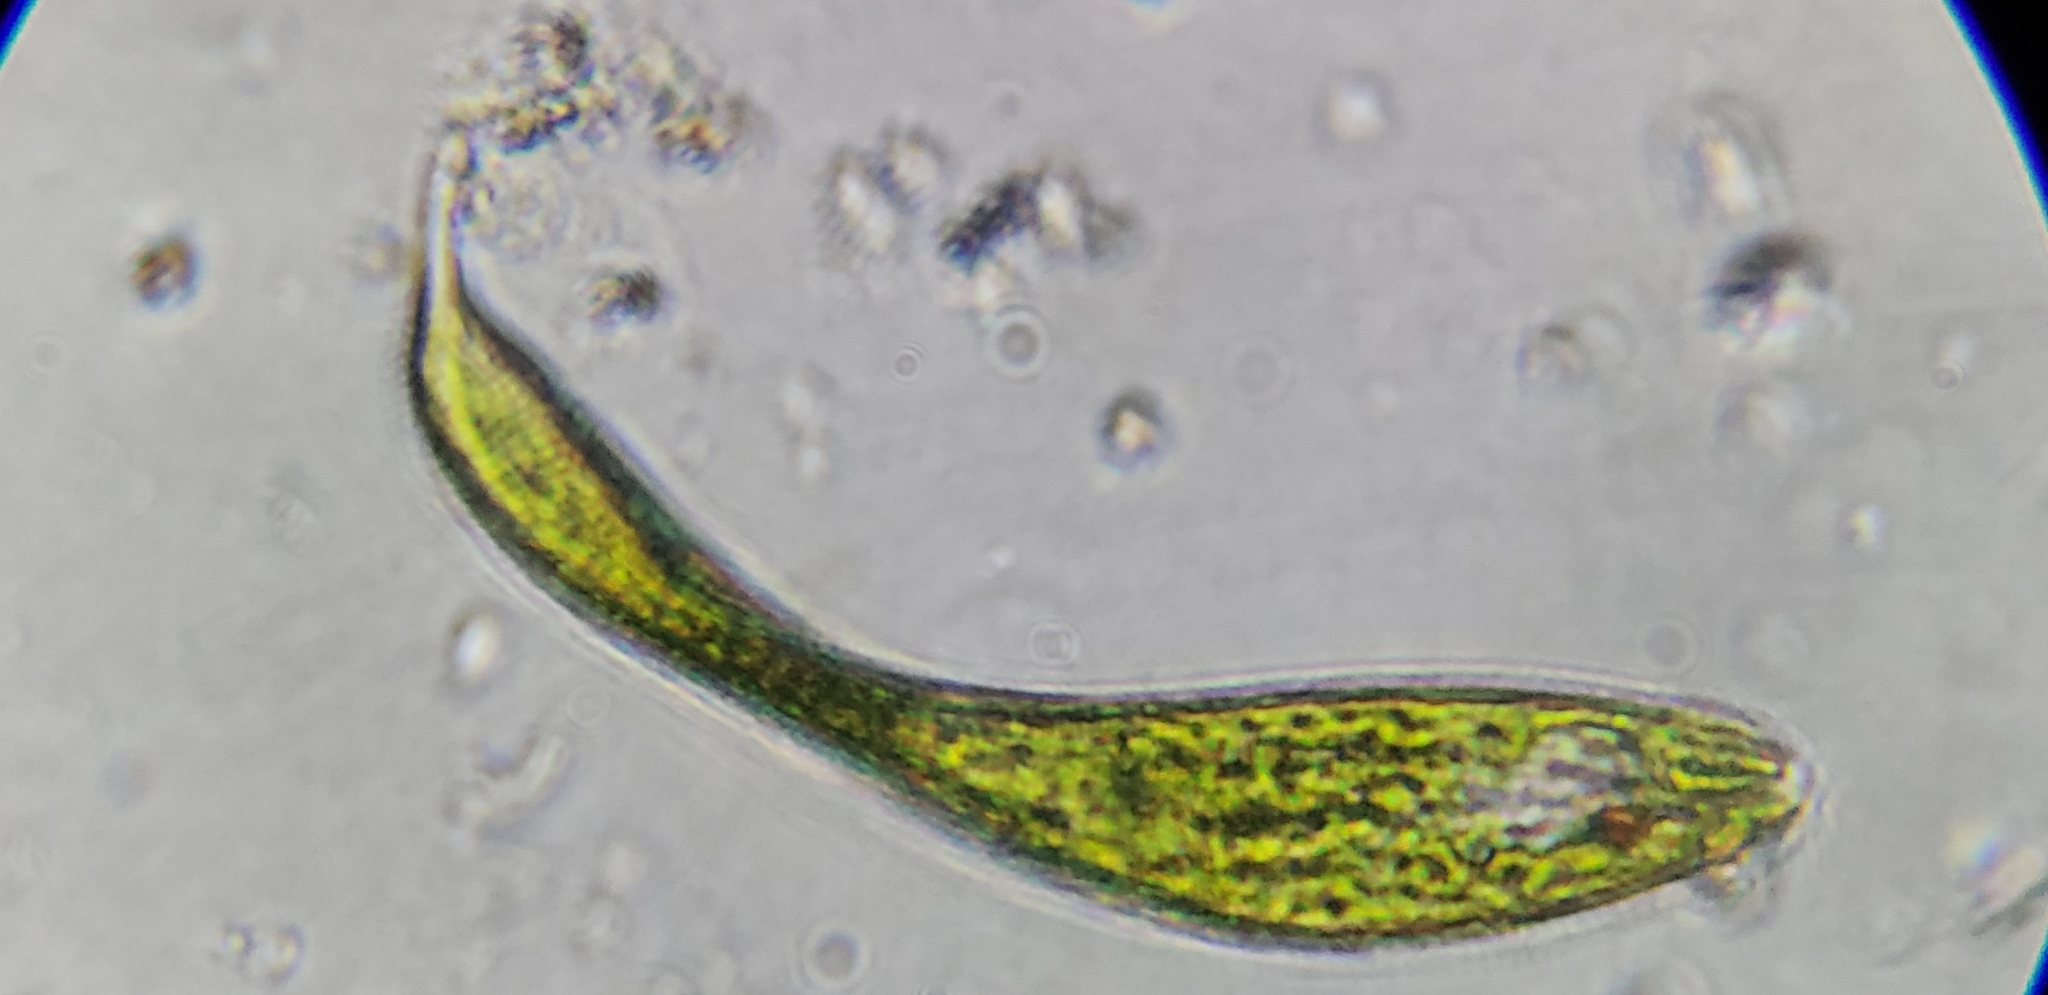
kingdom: Protozoa
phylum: Euglenozoa
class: Euglenoidea
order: Euglenida
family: Phacidae
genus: Lepocinclis
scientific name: Lepocinclis fusca
